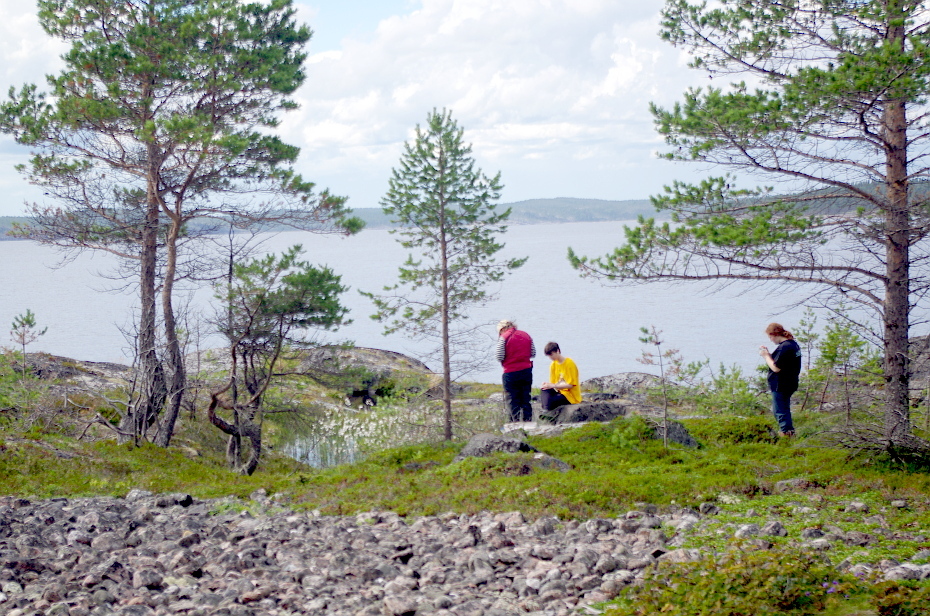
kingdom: Plantae
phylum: Tracheophyta
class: Pinopsida
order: Pinales
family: Pinaceae
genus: Pinus
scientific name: Pinus sylvestris
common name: Scots pine
